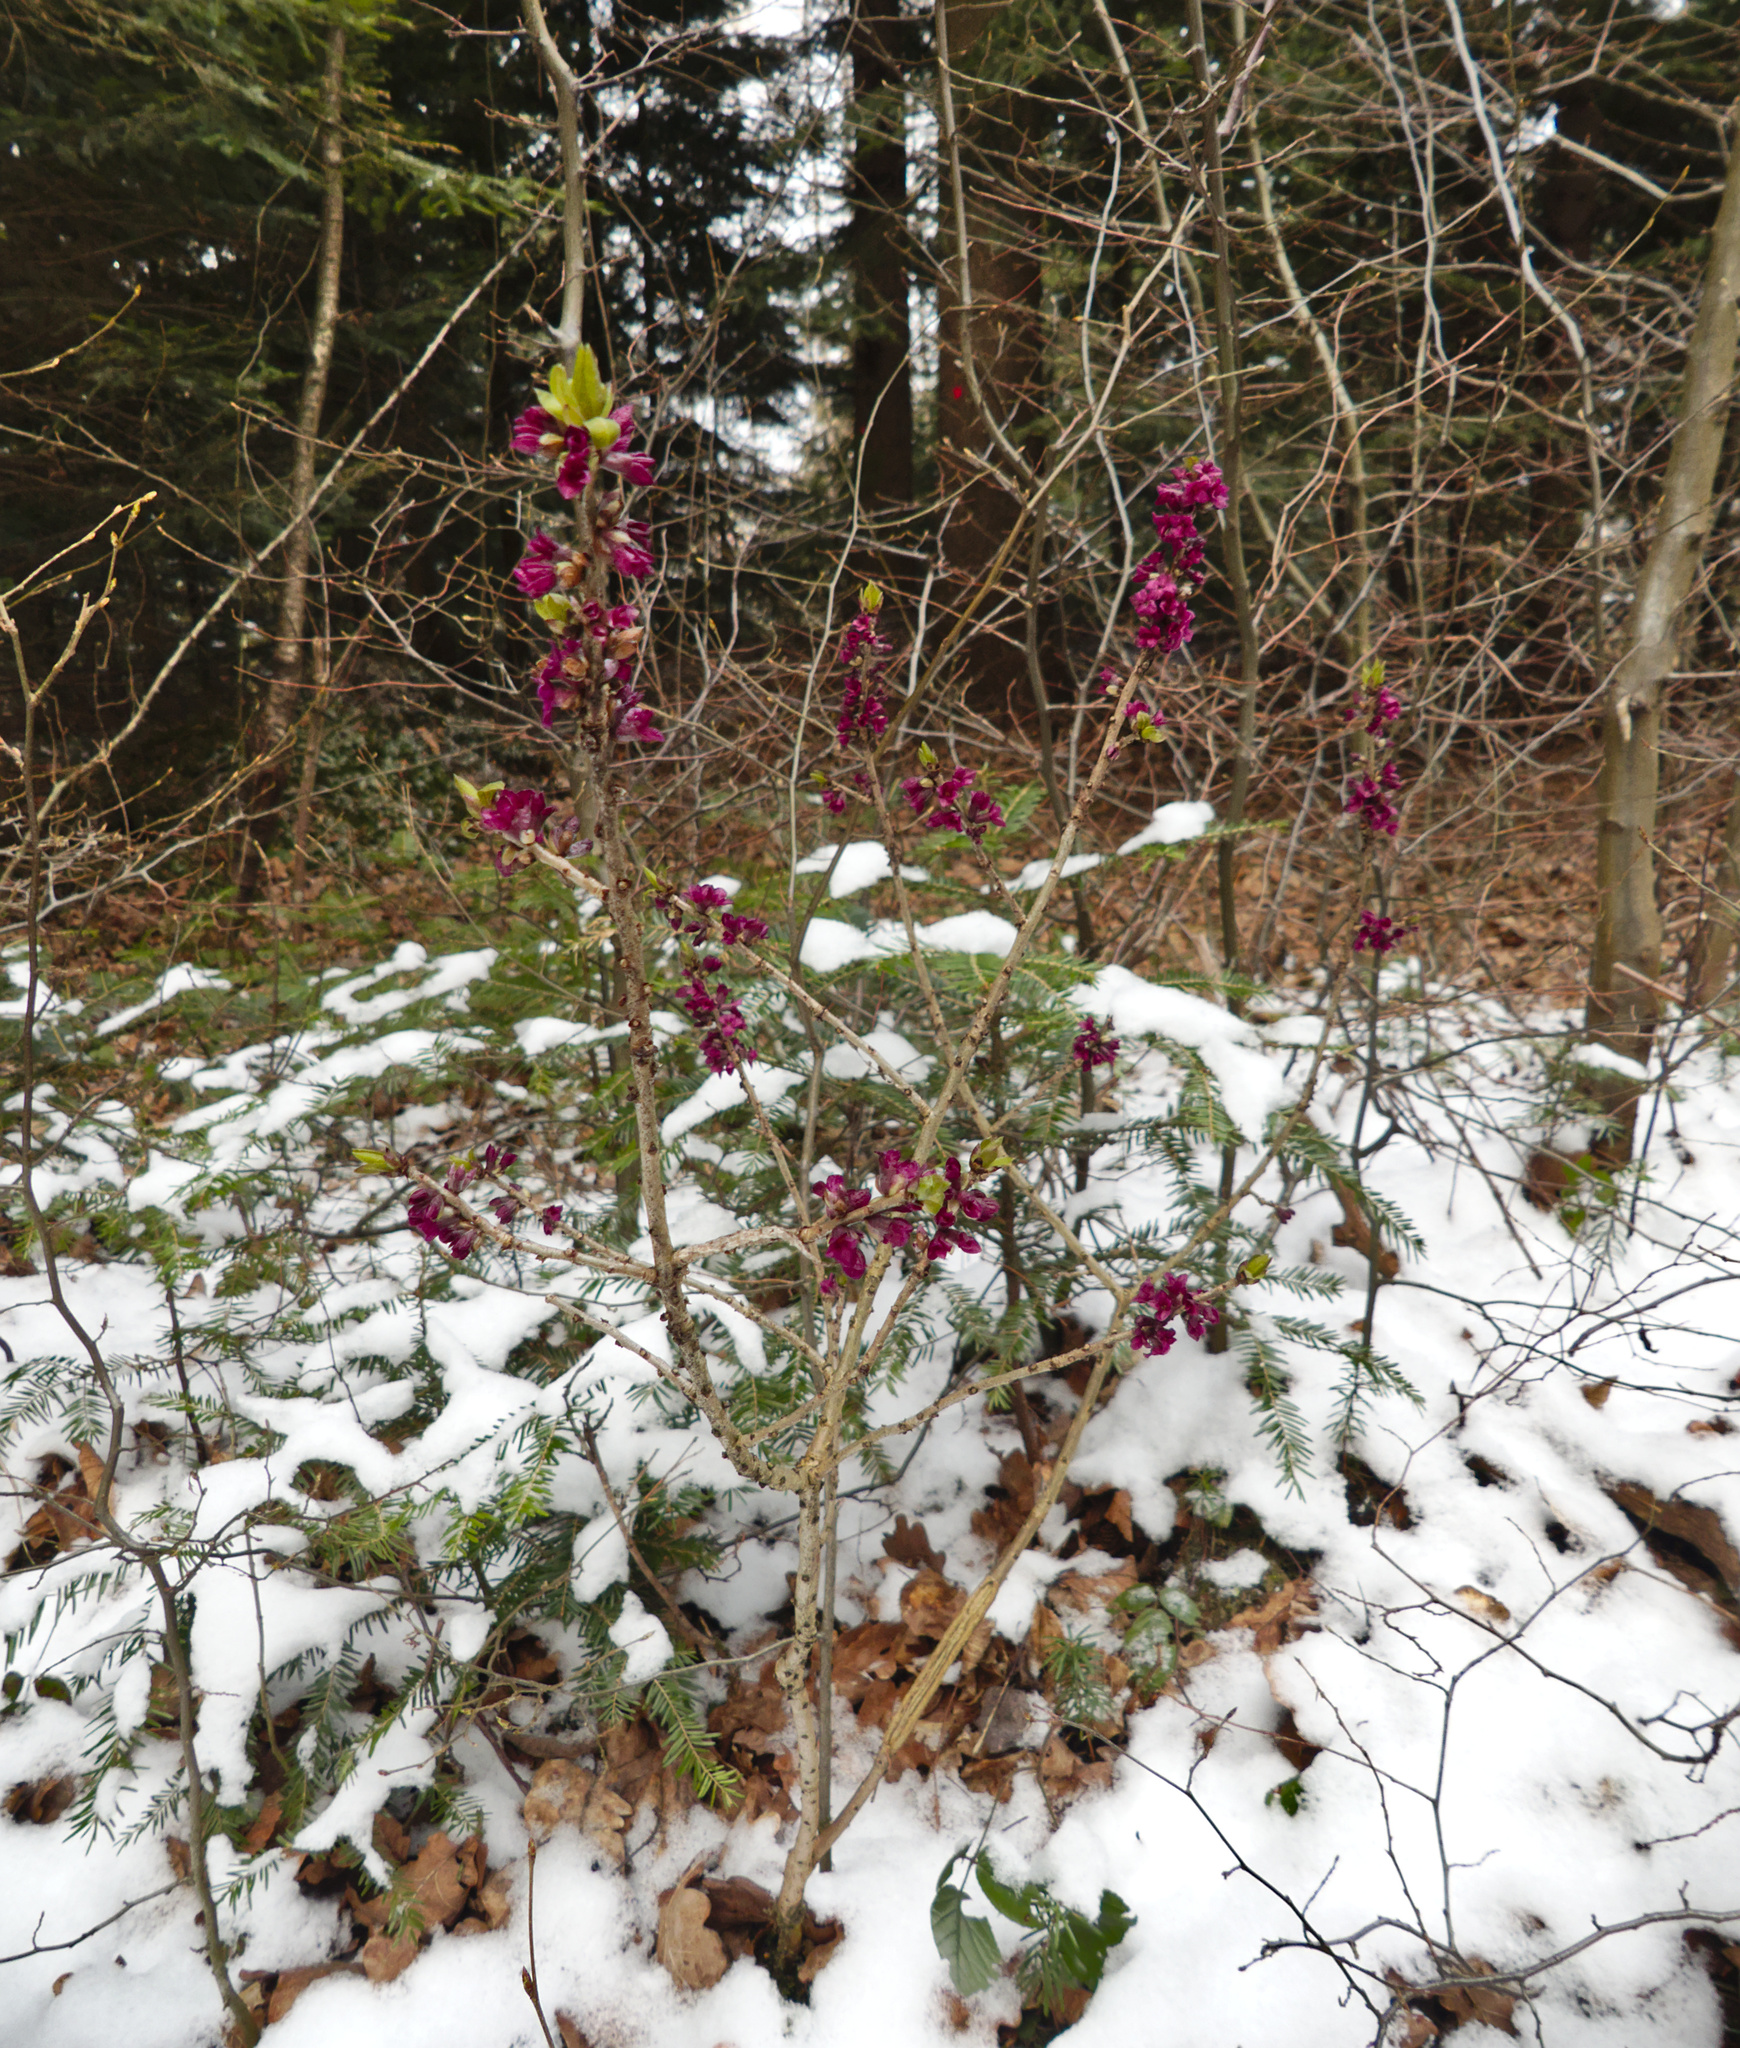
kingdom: Plantae
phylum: Tracheophyta
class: Magnoliopsida
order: Malvales
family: Thymelaeaceae
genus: Daphne
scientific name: Daphne mezereum
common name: Mezereon
